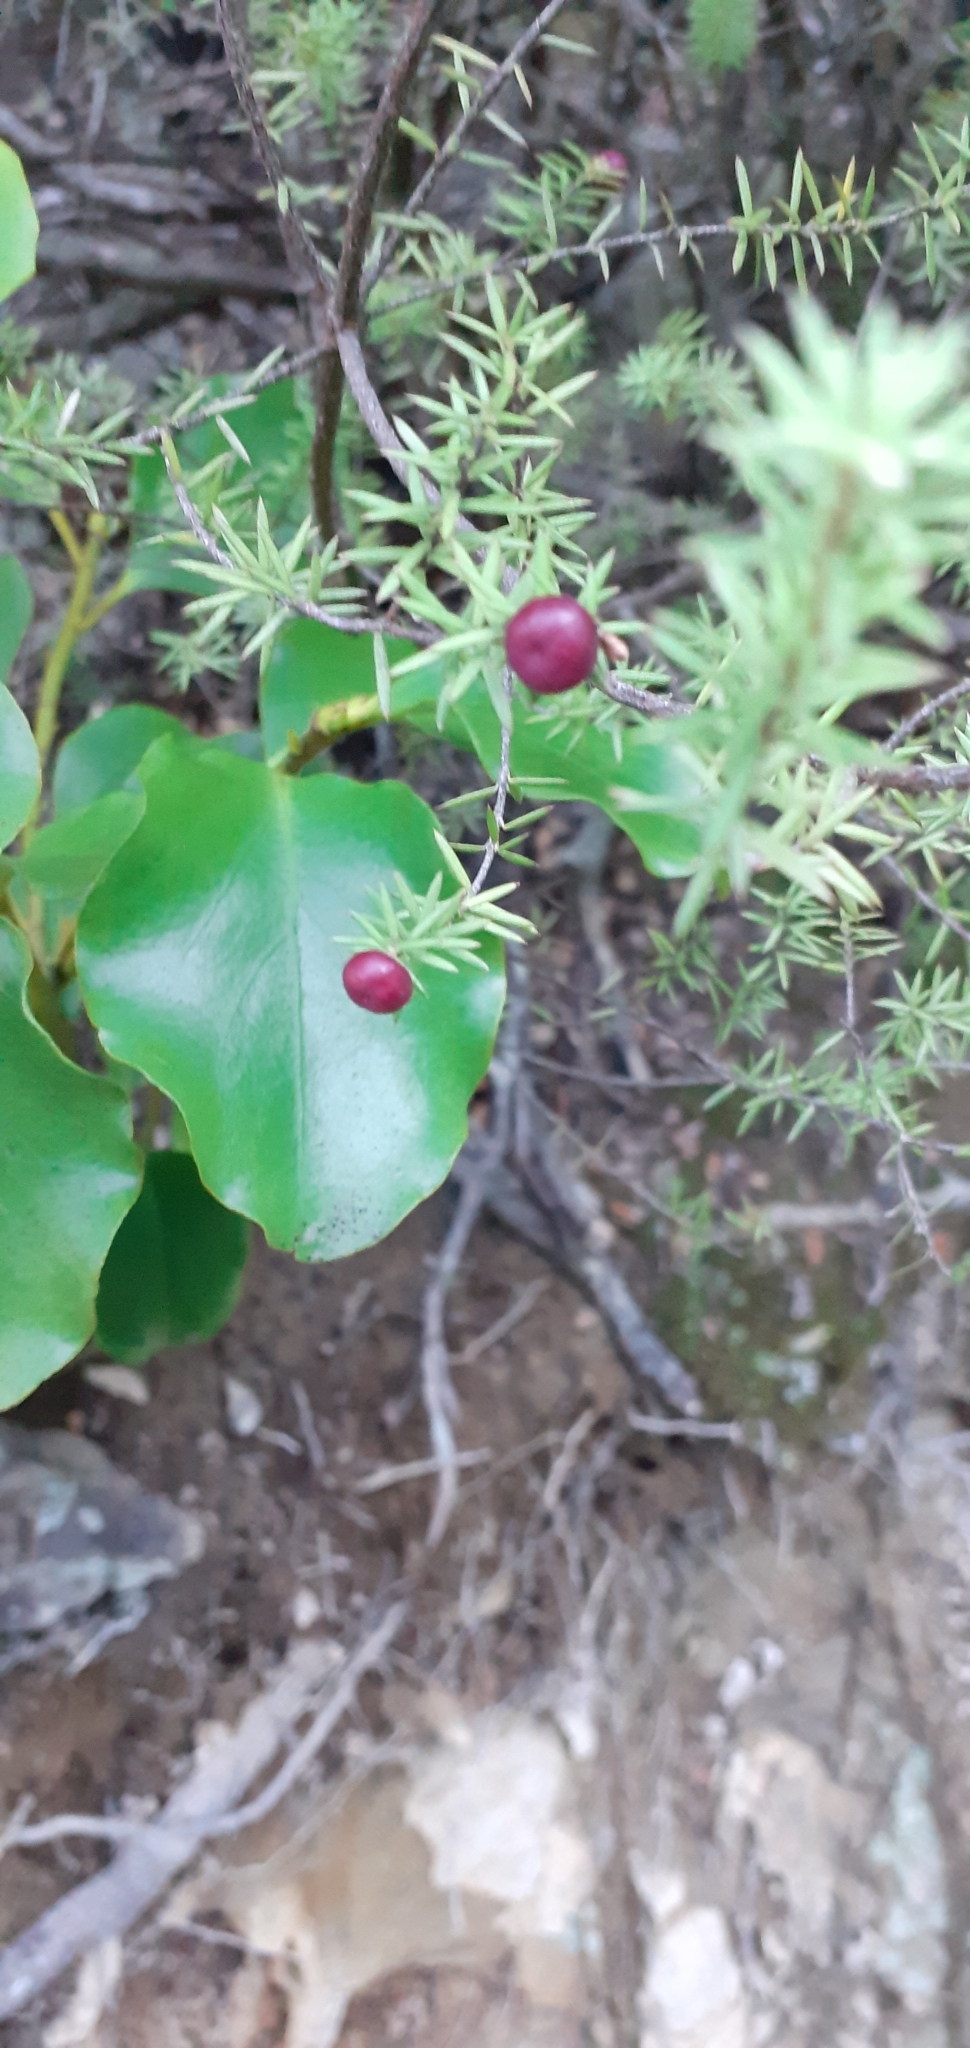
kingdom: Plantae
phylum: Tracheophyta
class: Magnoliopsida
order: Ericales
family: Ericaceae
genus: Leptecophylla
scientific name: Leptecophylla juniperina
